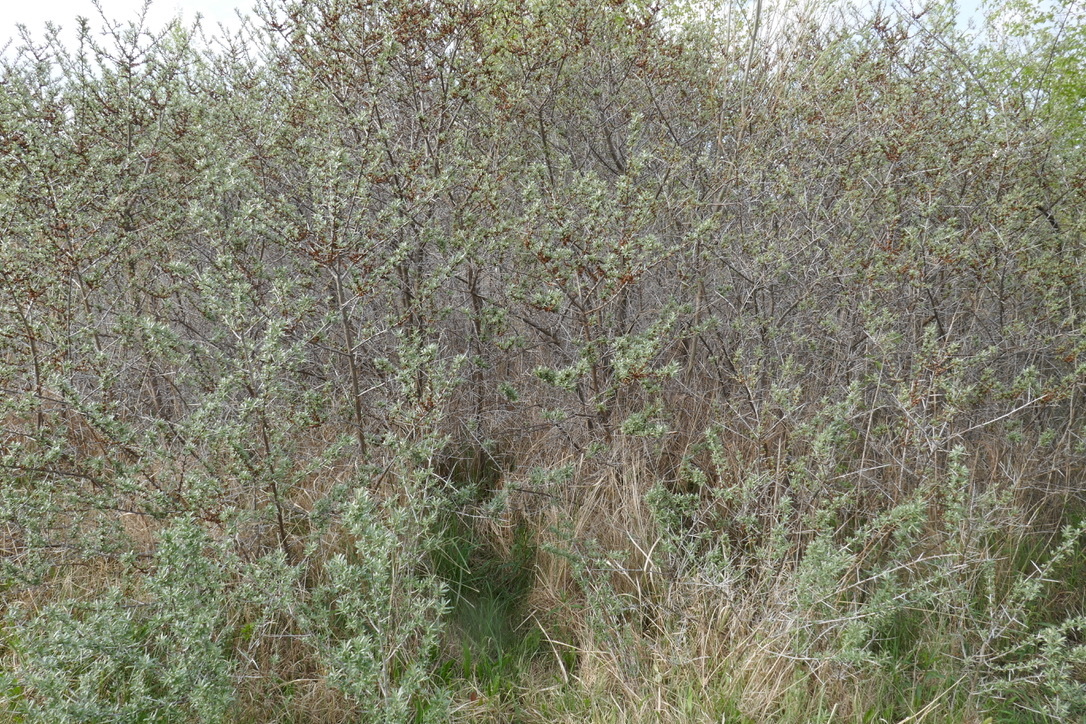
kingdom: Plantae
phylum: Tracheophyta
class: Magnoliopsida
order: Rosales
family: Elaeagnaceae
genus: Hippophae
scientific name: Hippophae rhamnoides
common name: Sea-buckthorn
